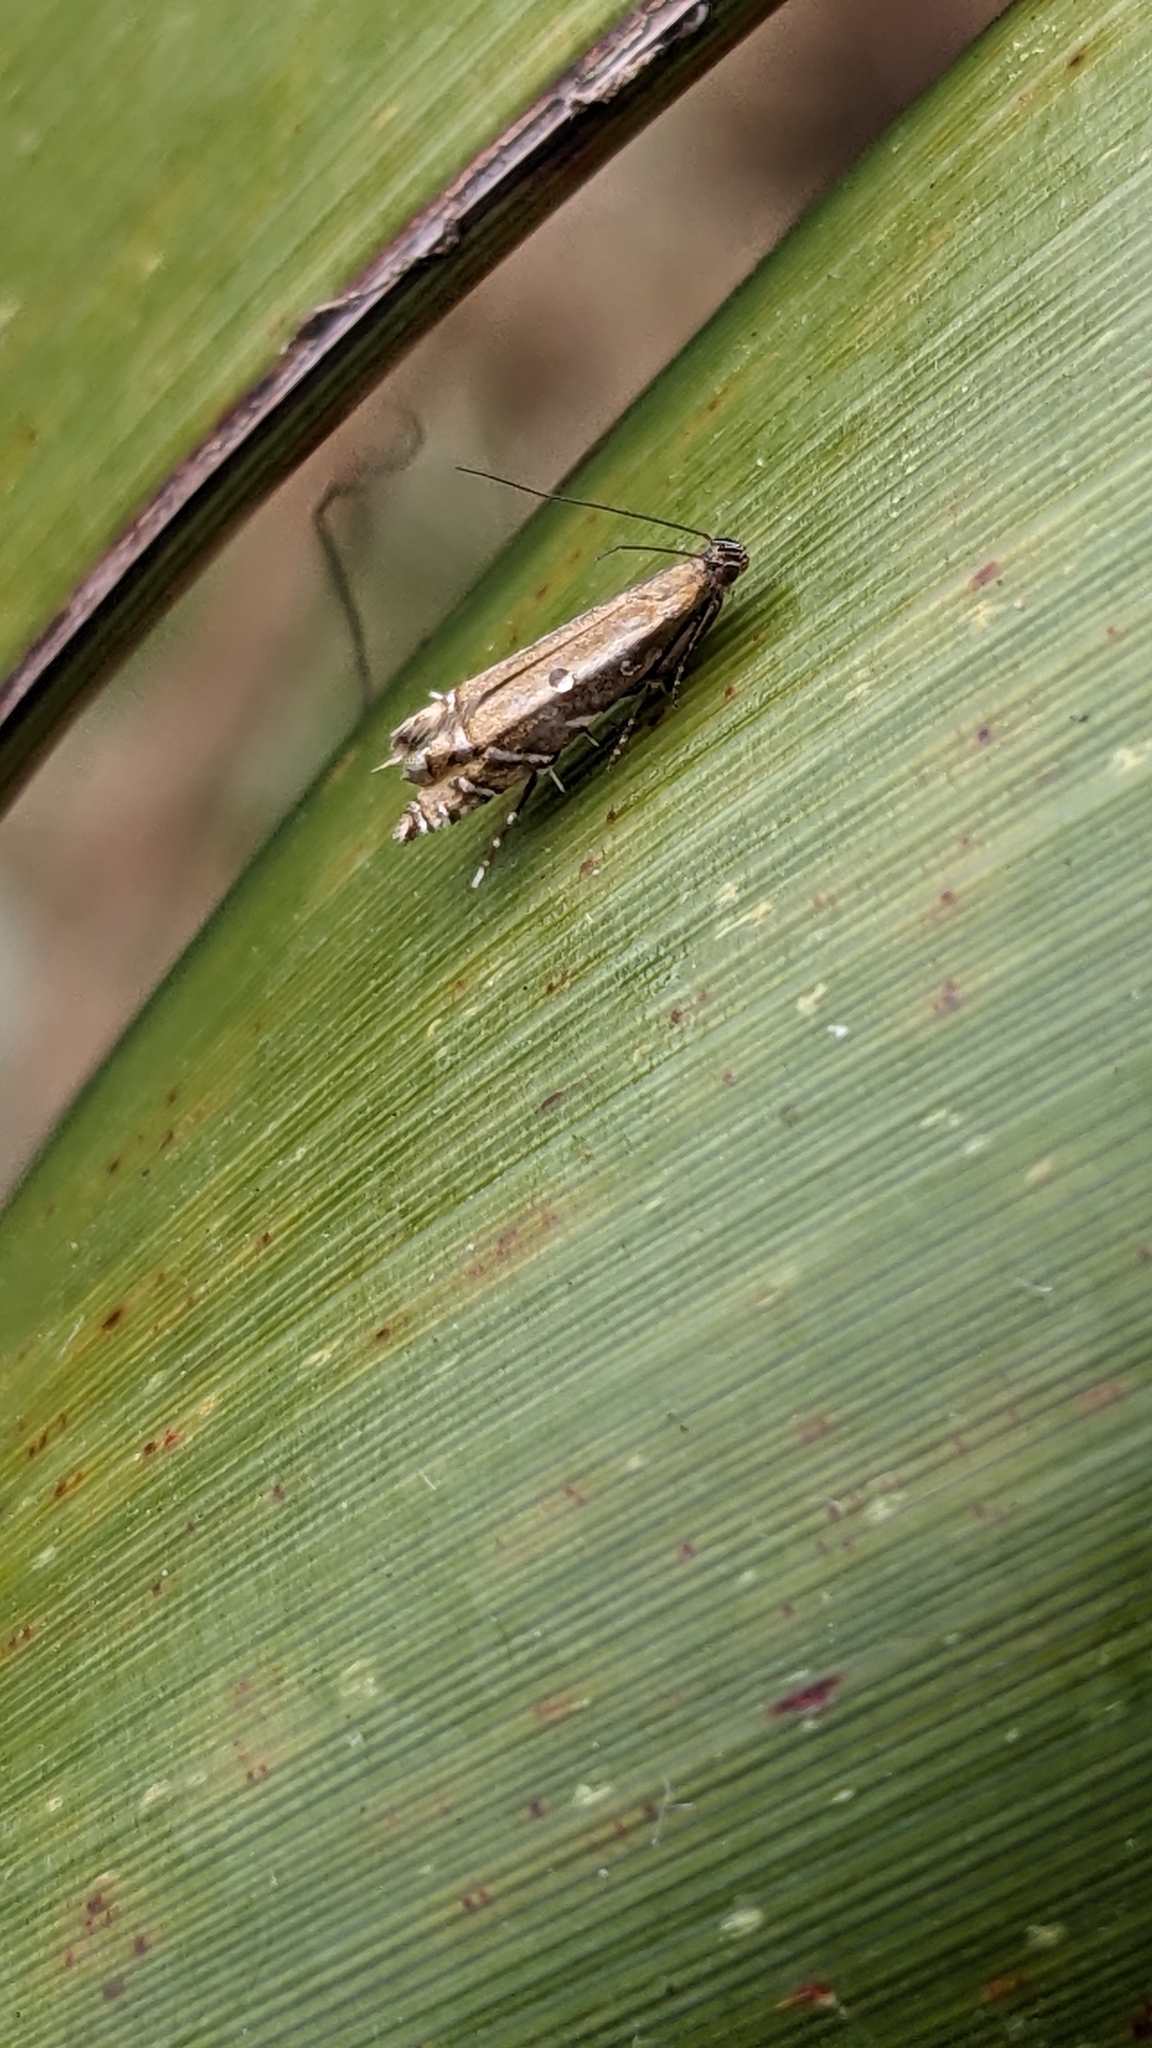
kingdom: Animalia
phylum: Arthropoda
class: Insecta
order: Lepidoptera
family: Glyphipterigidae
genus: Glyphipterix
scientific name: Glyphipterix scintilella
